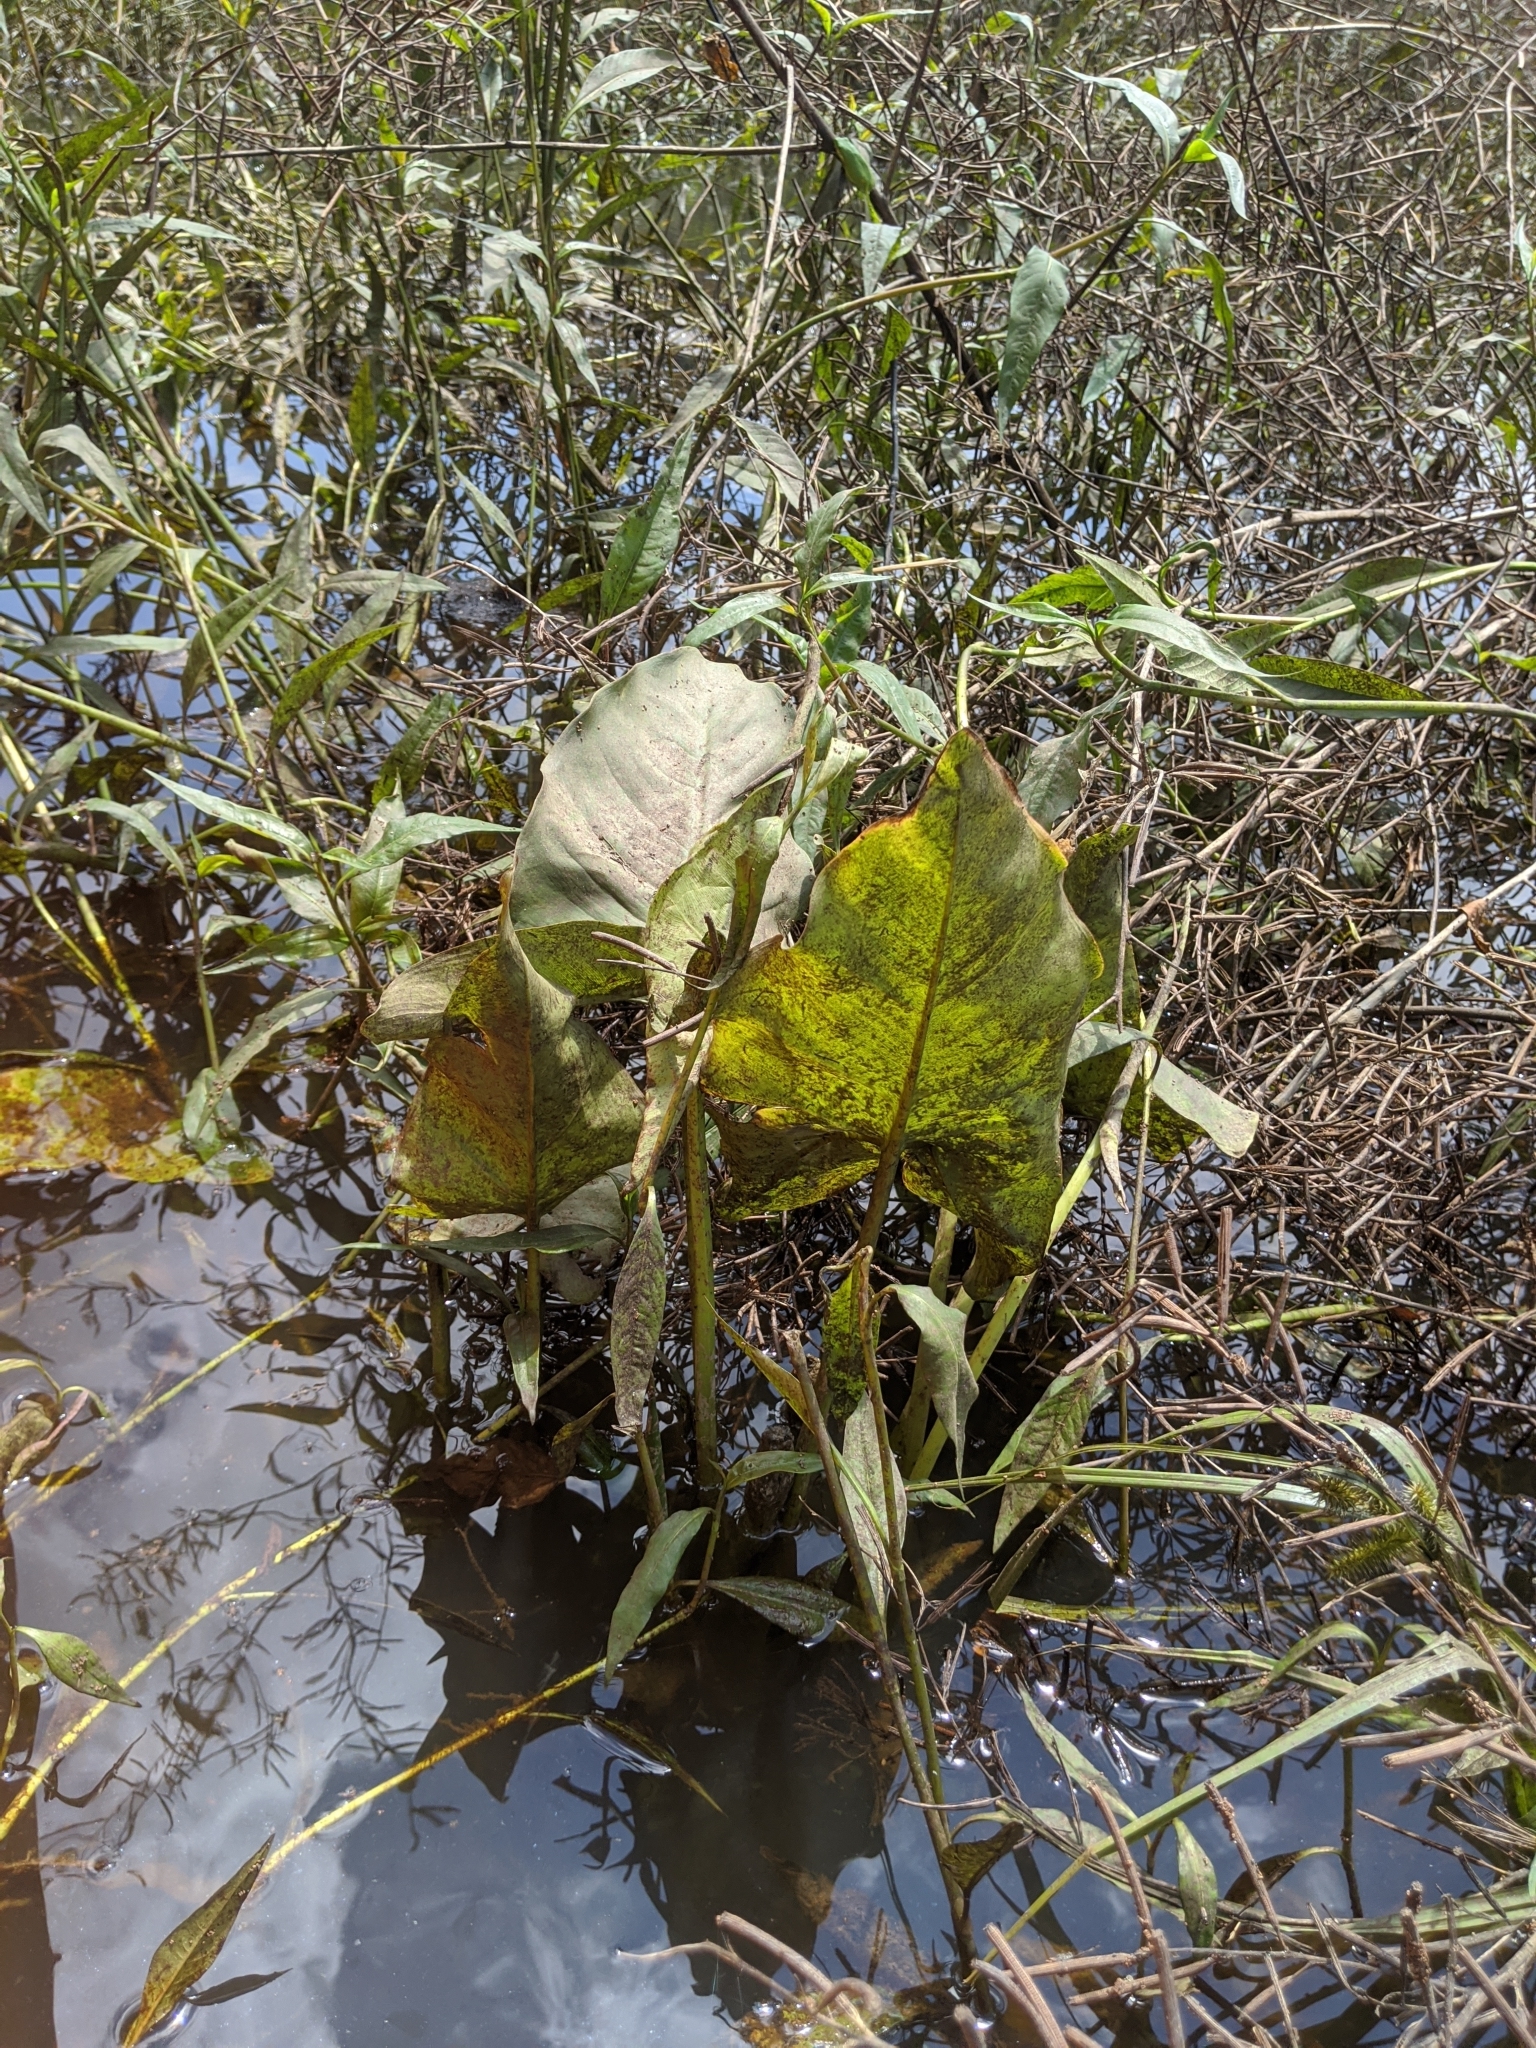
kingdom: Plantae
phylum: Tracheophyta
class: Liliopsida
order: Alismatales
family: Araceae
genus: Peltandra
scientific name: Peltandra virginica
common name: Arrow arum
